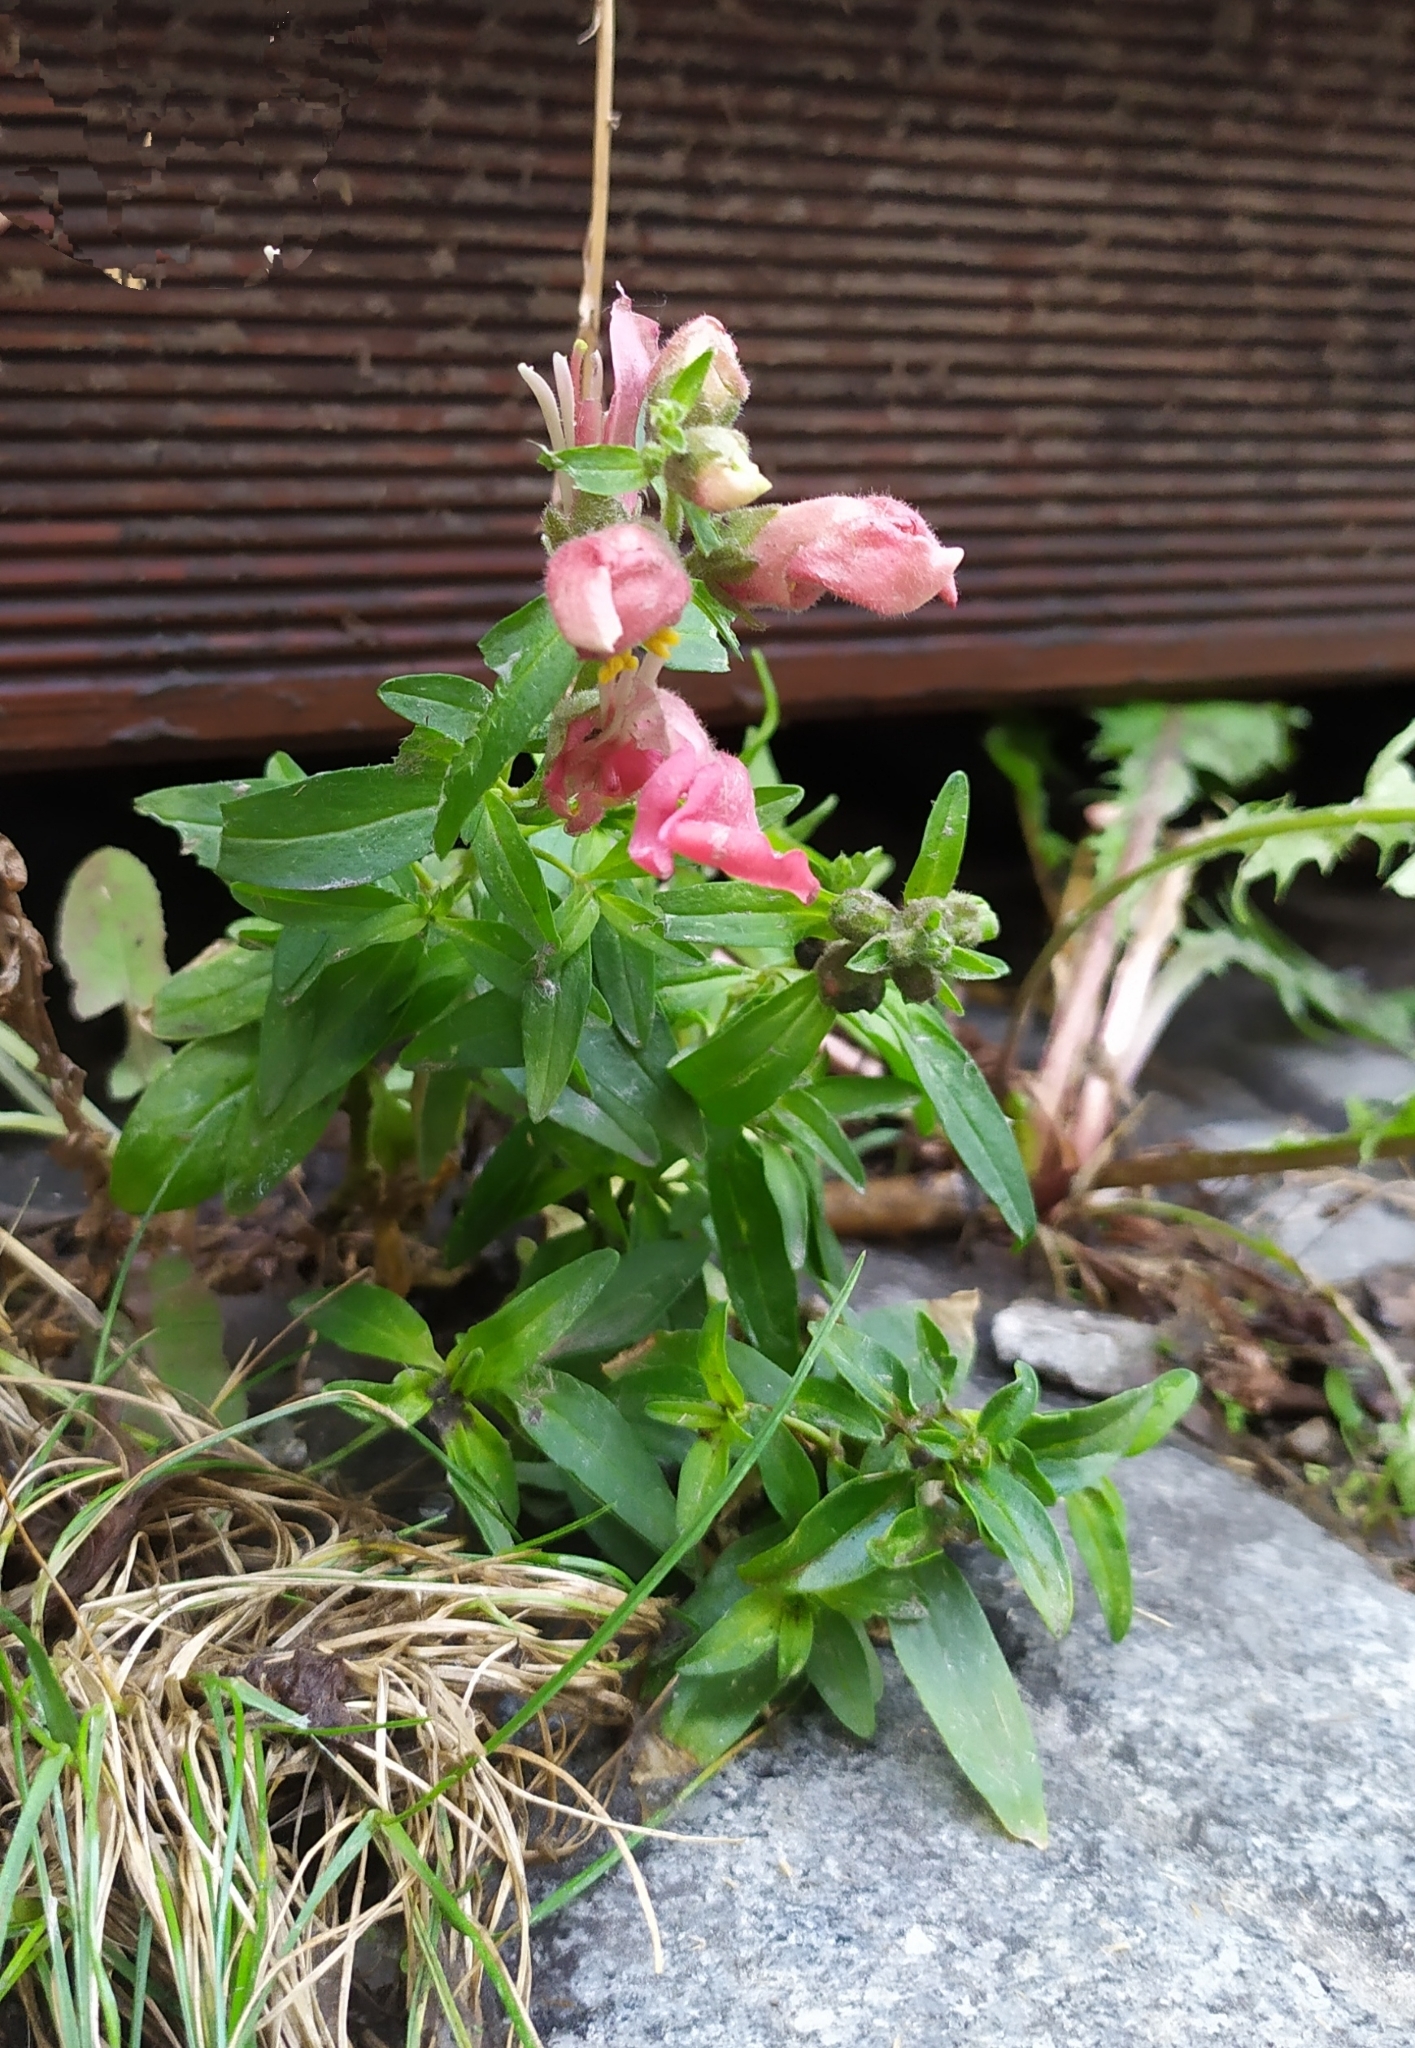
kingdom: Plantae
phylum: Tracheophyta
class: Magnoliopsida
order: Lamiales
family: Plantaginaceae
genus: Antirrhinum
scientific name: Antirrhinum majus
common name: Snapdragon
